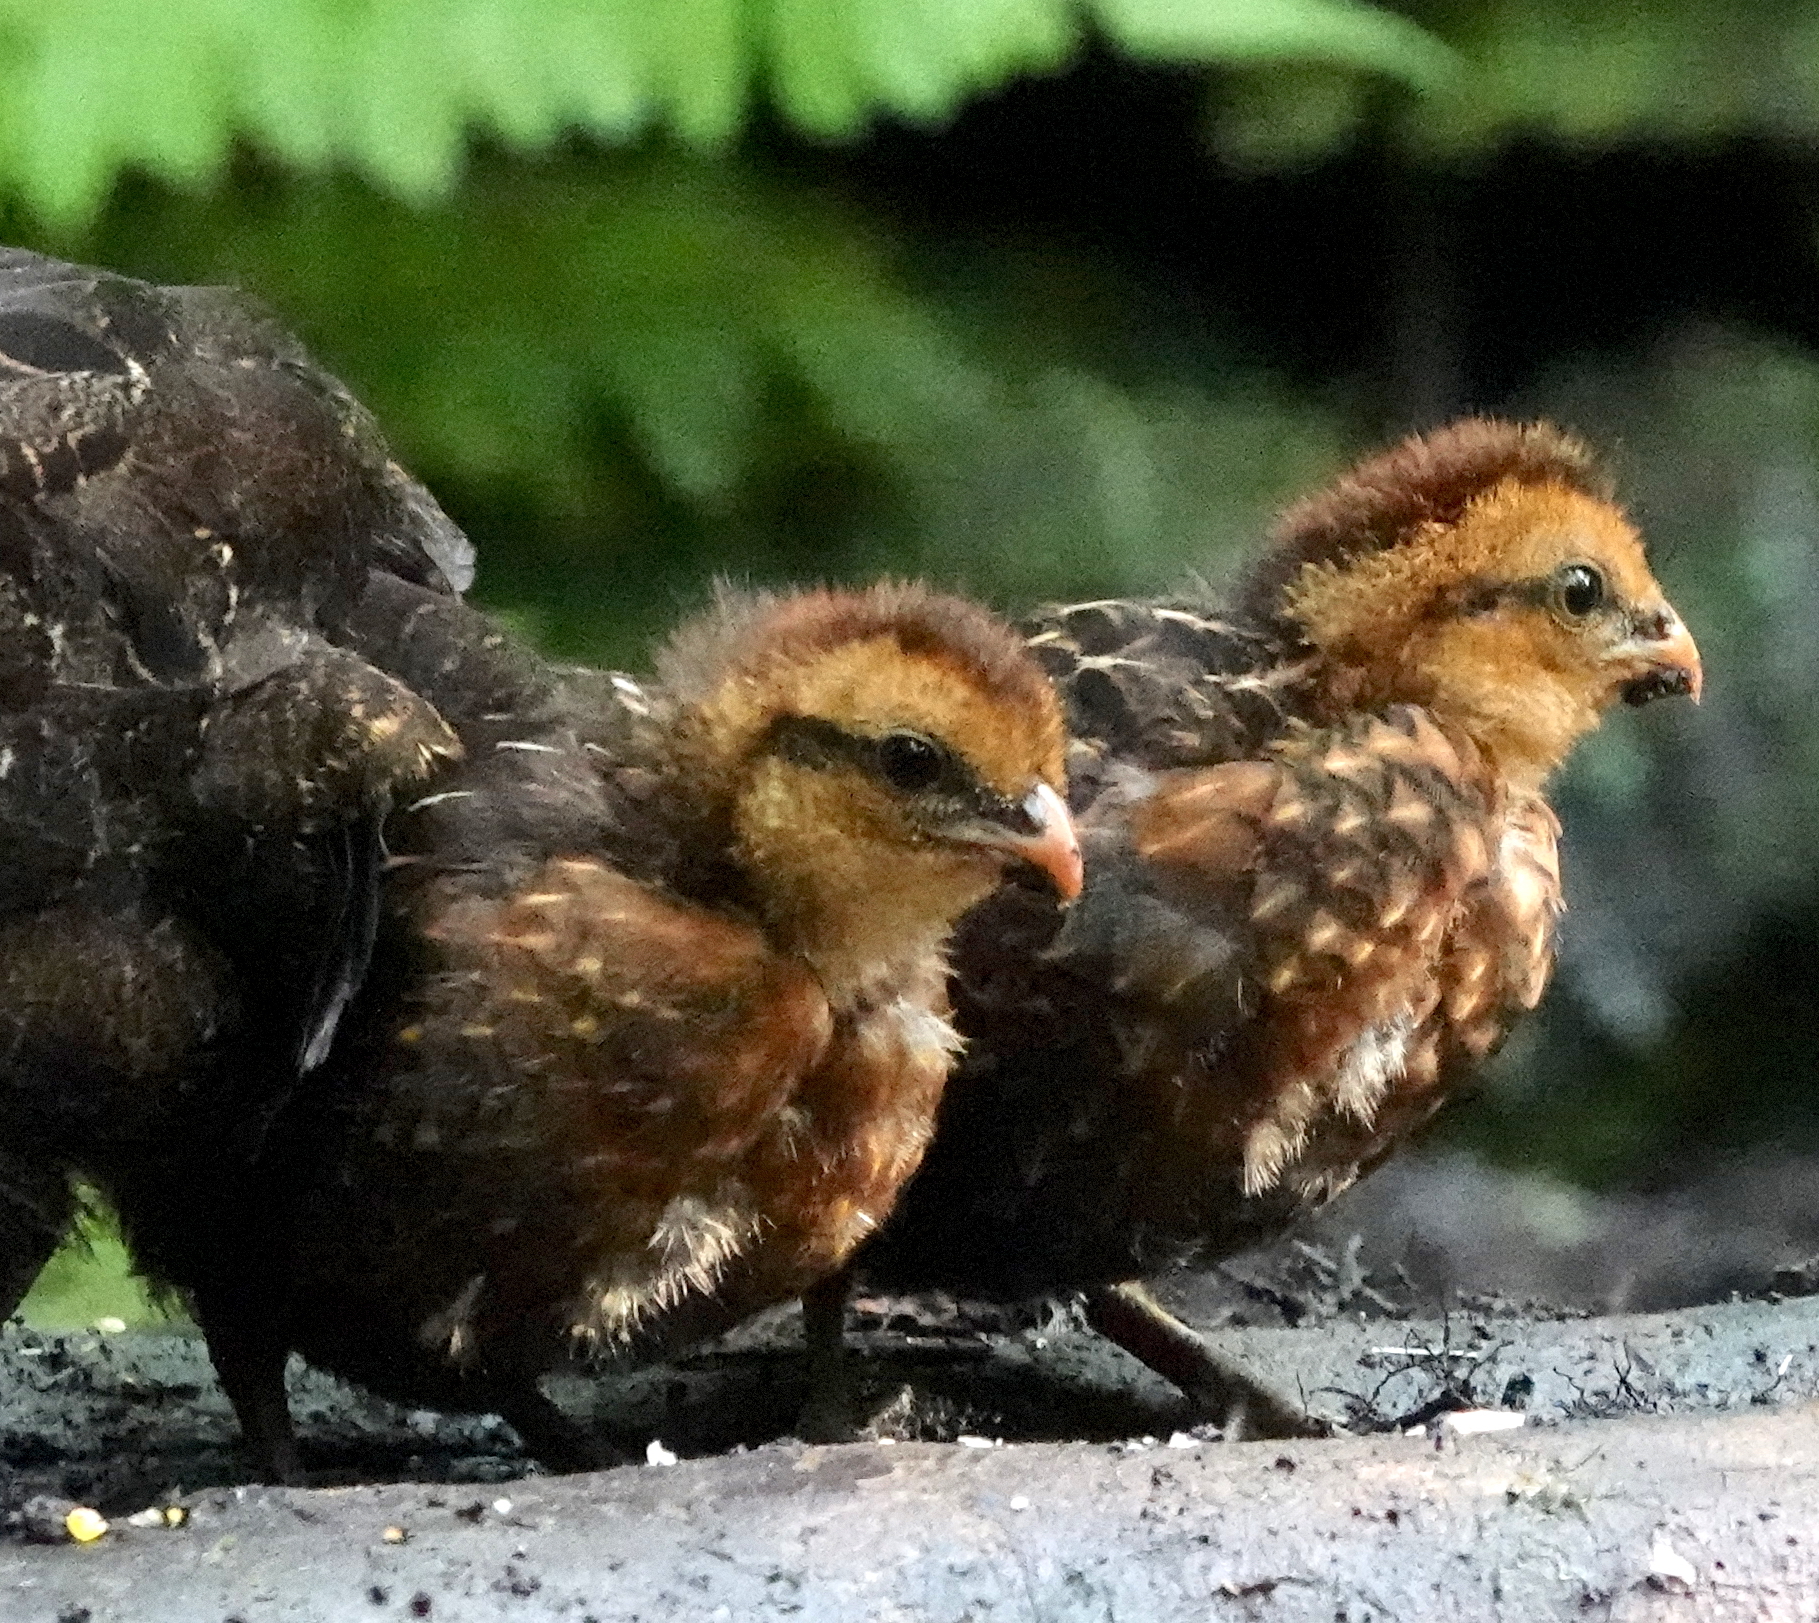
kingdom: Animalia
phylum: Chordata
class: Aves
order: Galliformes
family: Odontophoridae
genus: Odontophorus
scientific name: Odontophorus hyperythrus
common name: Chestnut wood-quail
